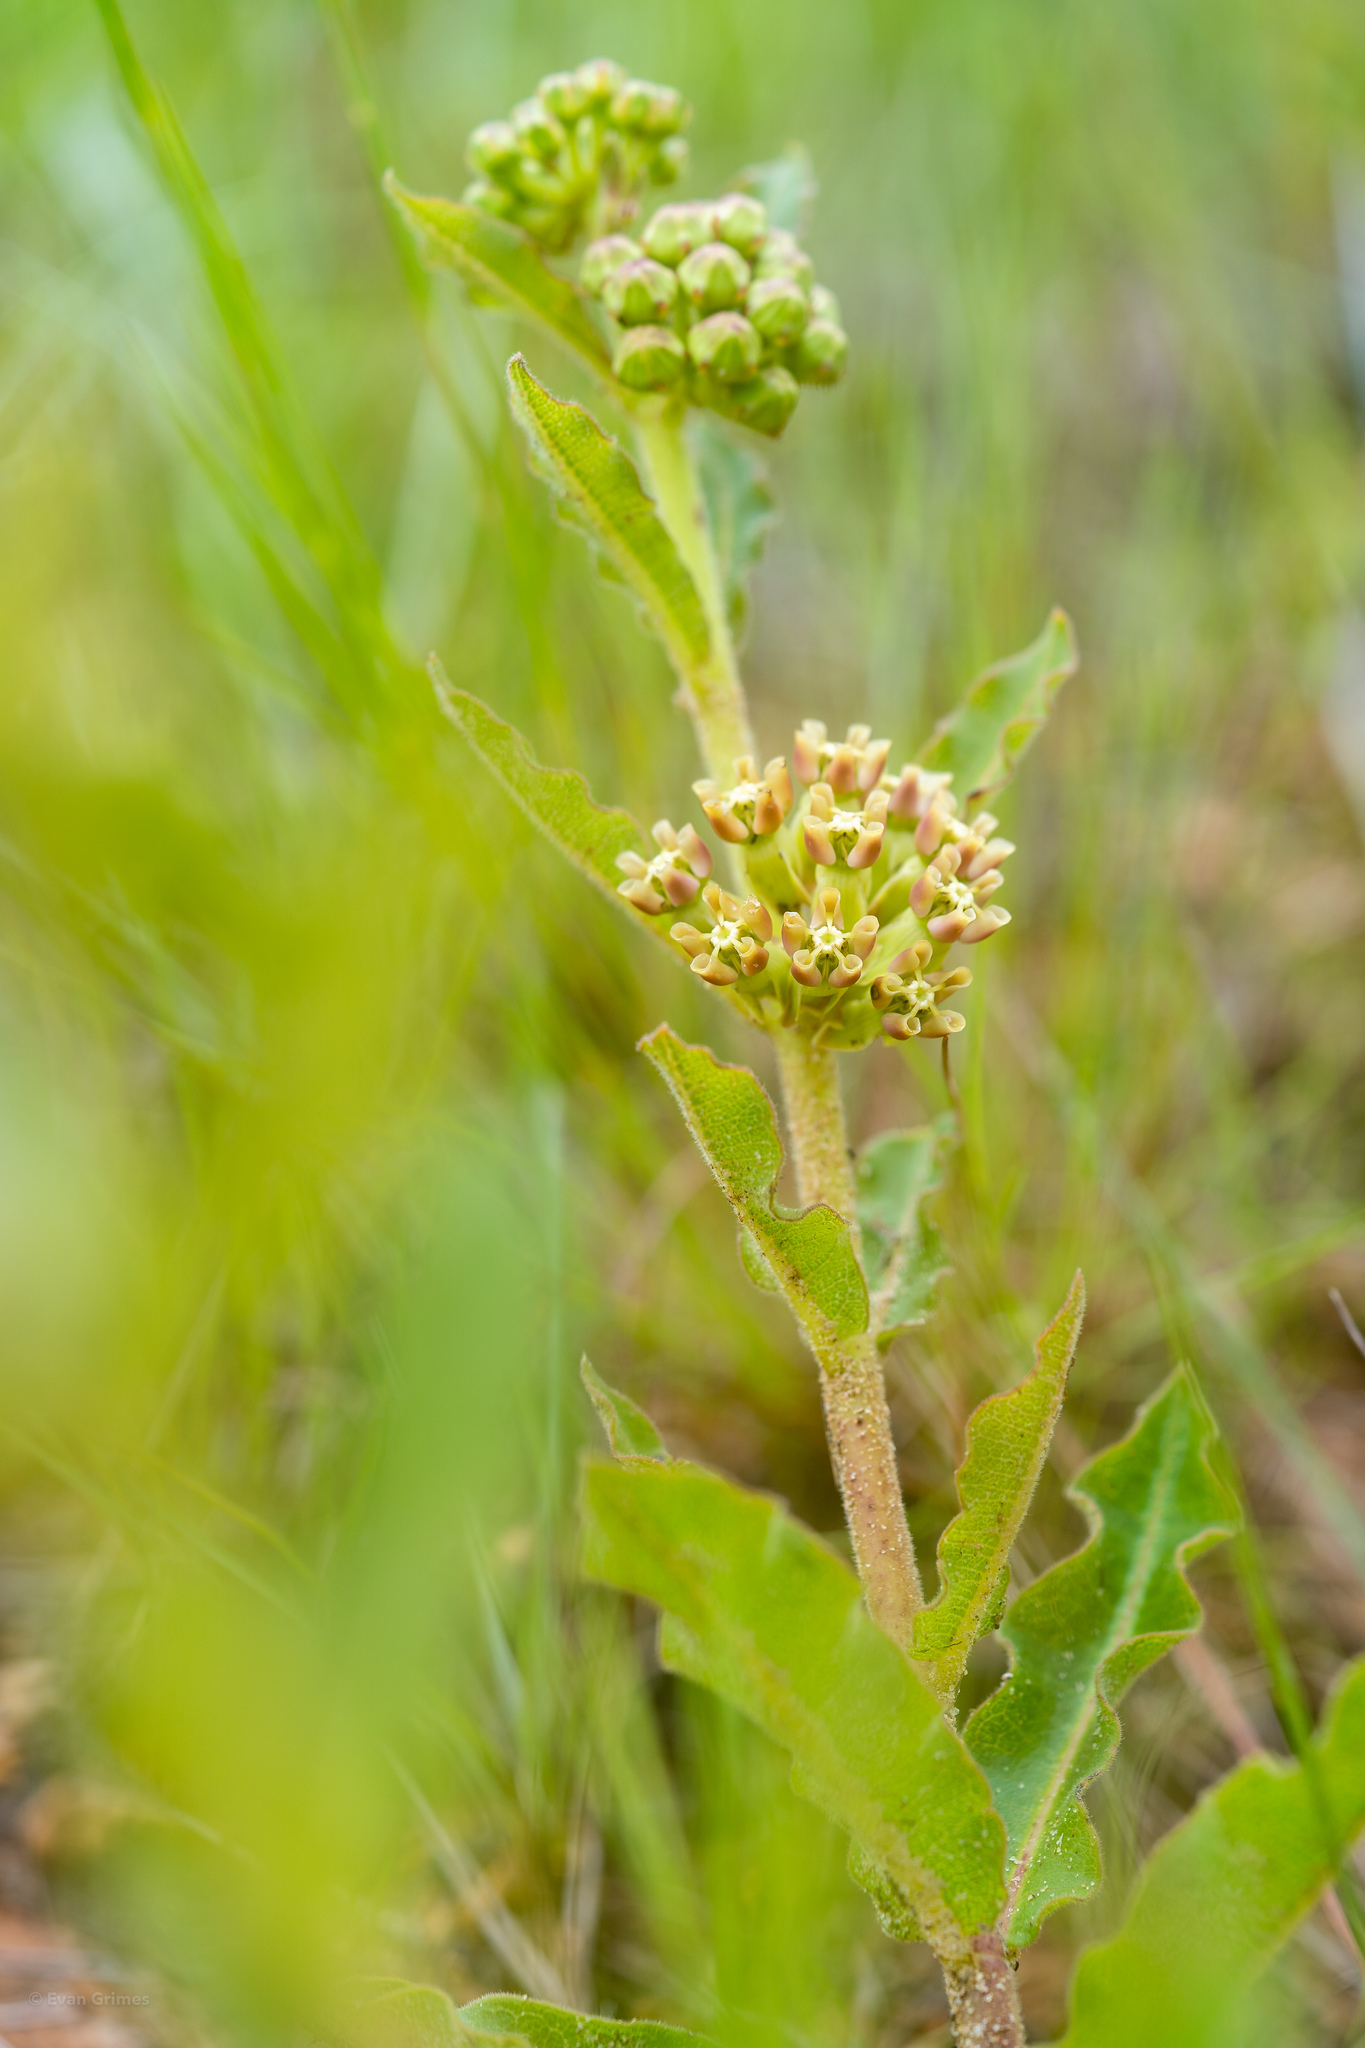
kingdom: Plantae
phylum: Tracheophyta
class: Magnoliopsida
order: Gentianales
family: Apocynaceae
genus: Asclepias
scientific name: Asclepias obovata
